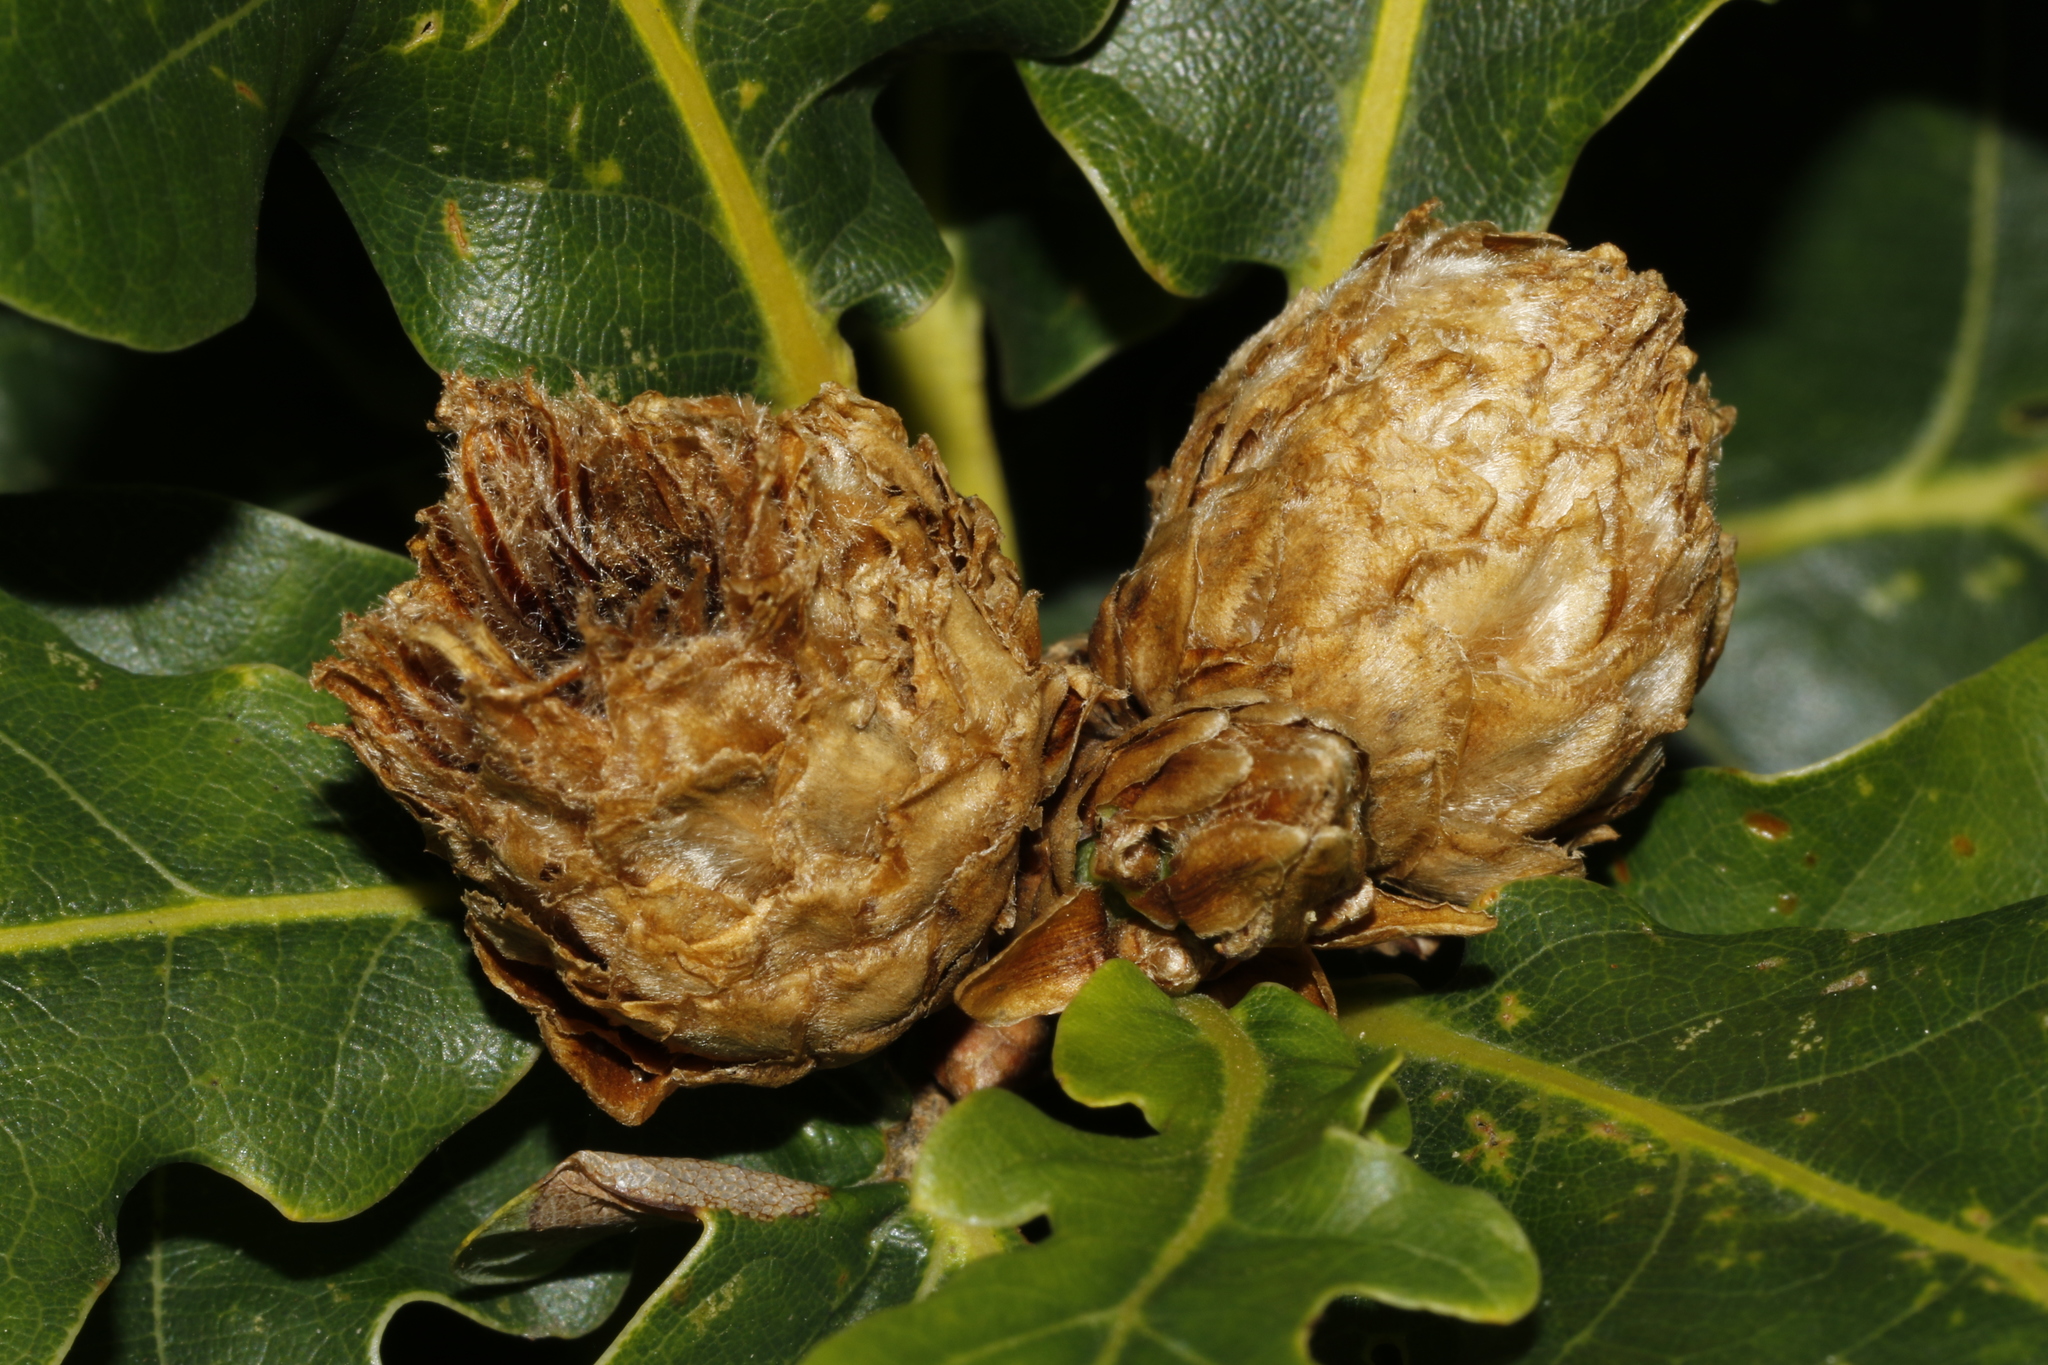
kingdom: Animalia
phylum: Arthropoda
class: Insecta
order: Hymenoptera
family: Cynipidae
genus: Andricus
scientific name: Andricus foecundatrix
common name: Artichoke gall
